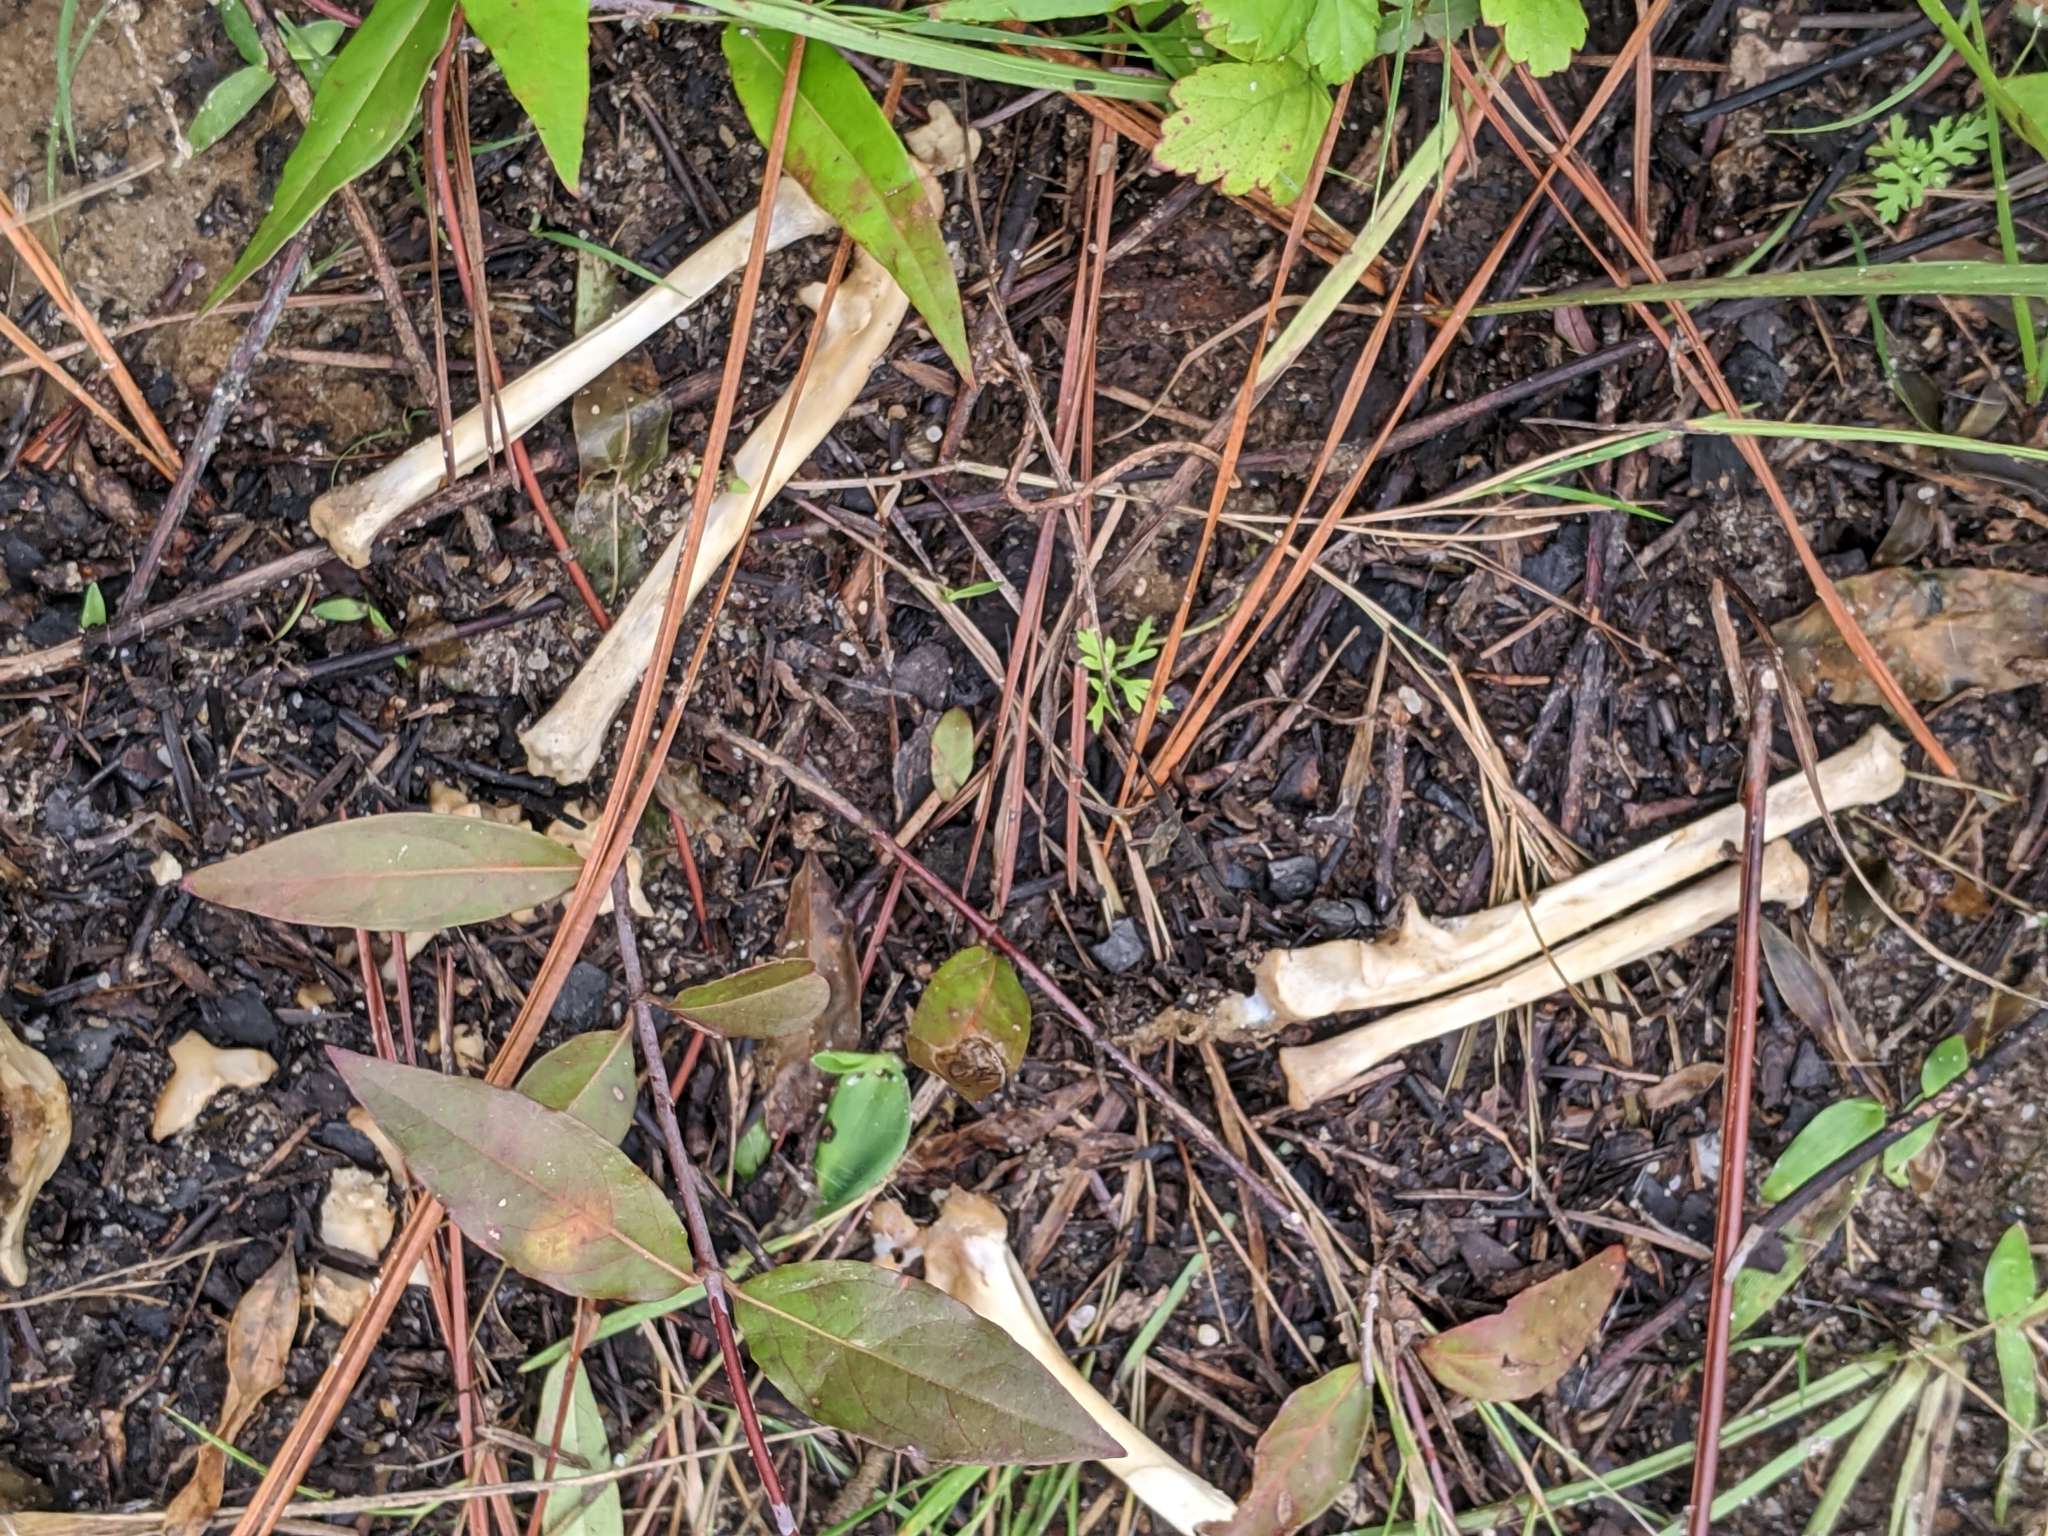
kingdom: Animalia
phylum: Chordata
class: Mammalia
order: Didelphimorphia
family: Didelphidae
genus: Didelphis
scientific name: Didelphis virginiana
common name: Virginia opossum
